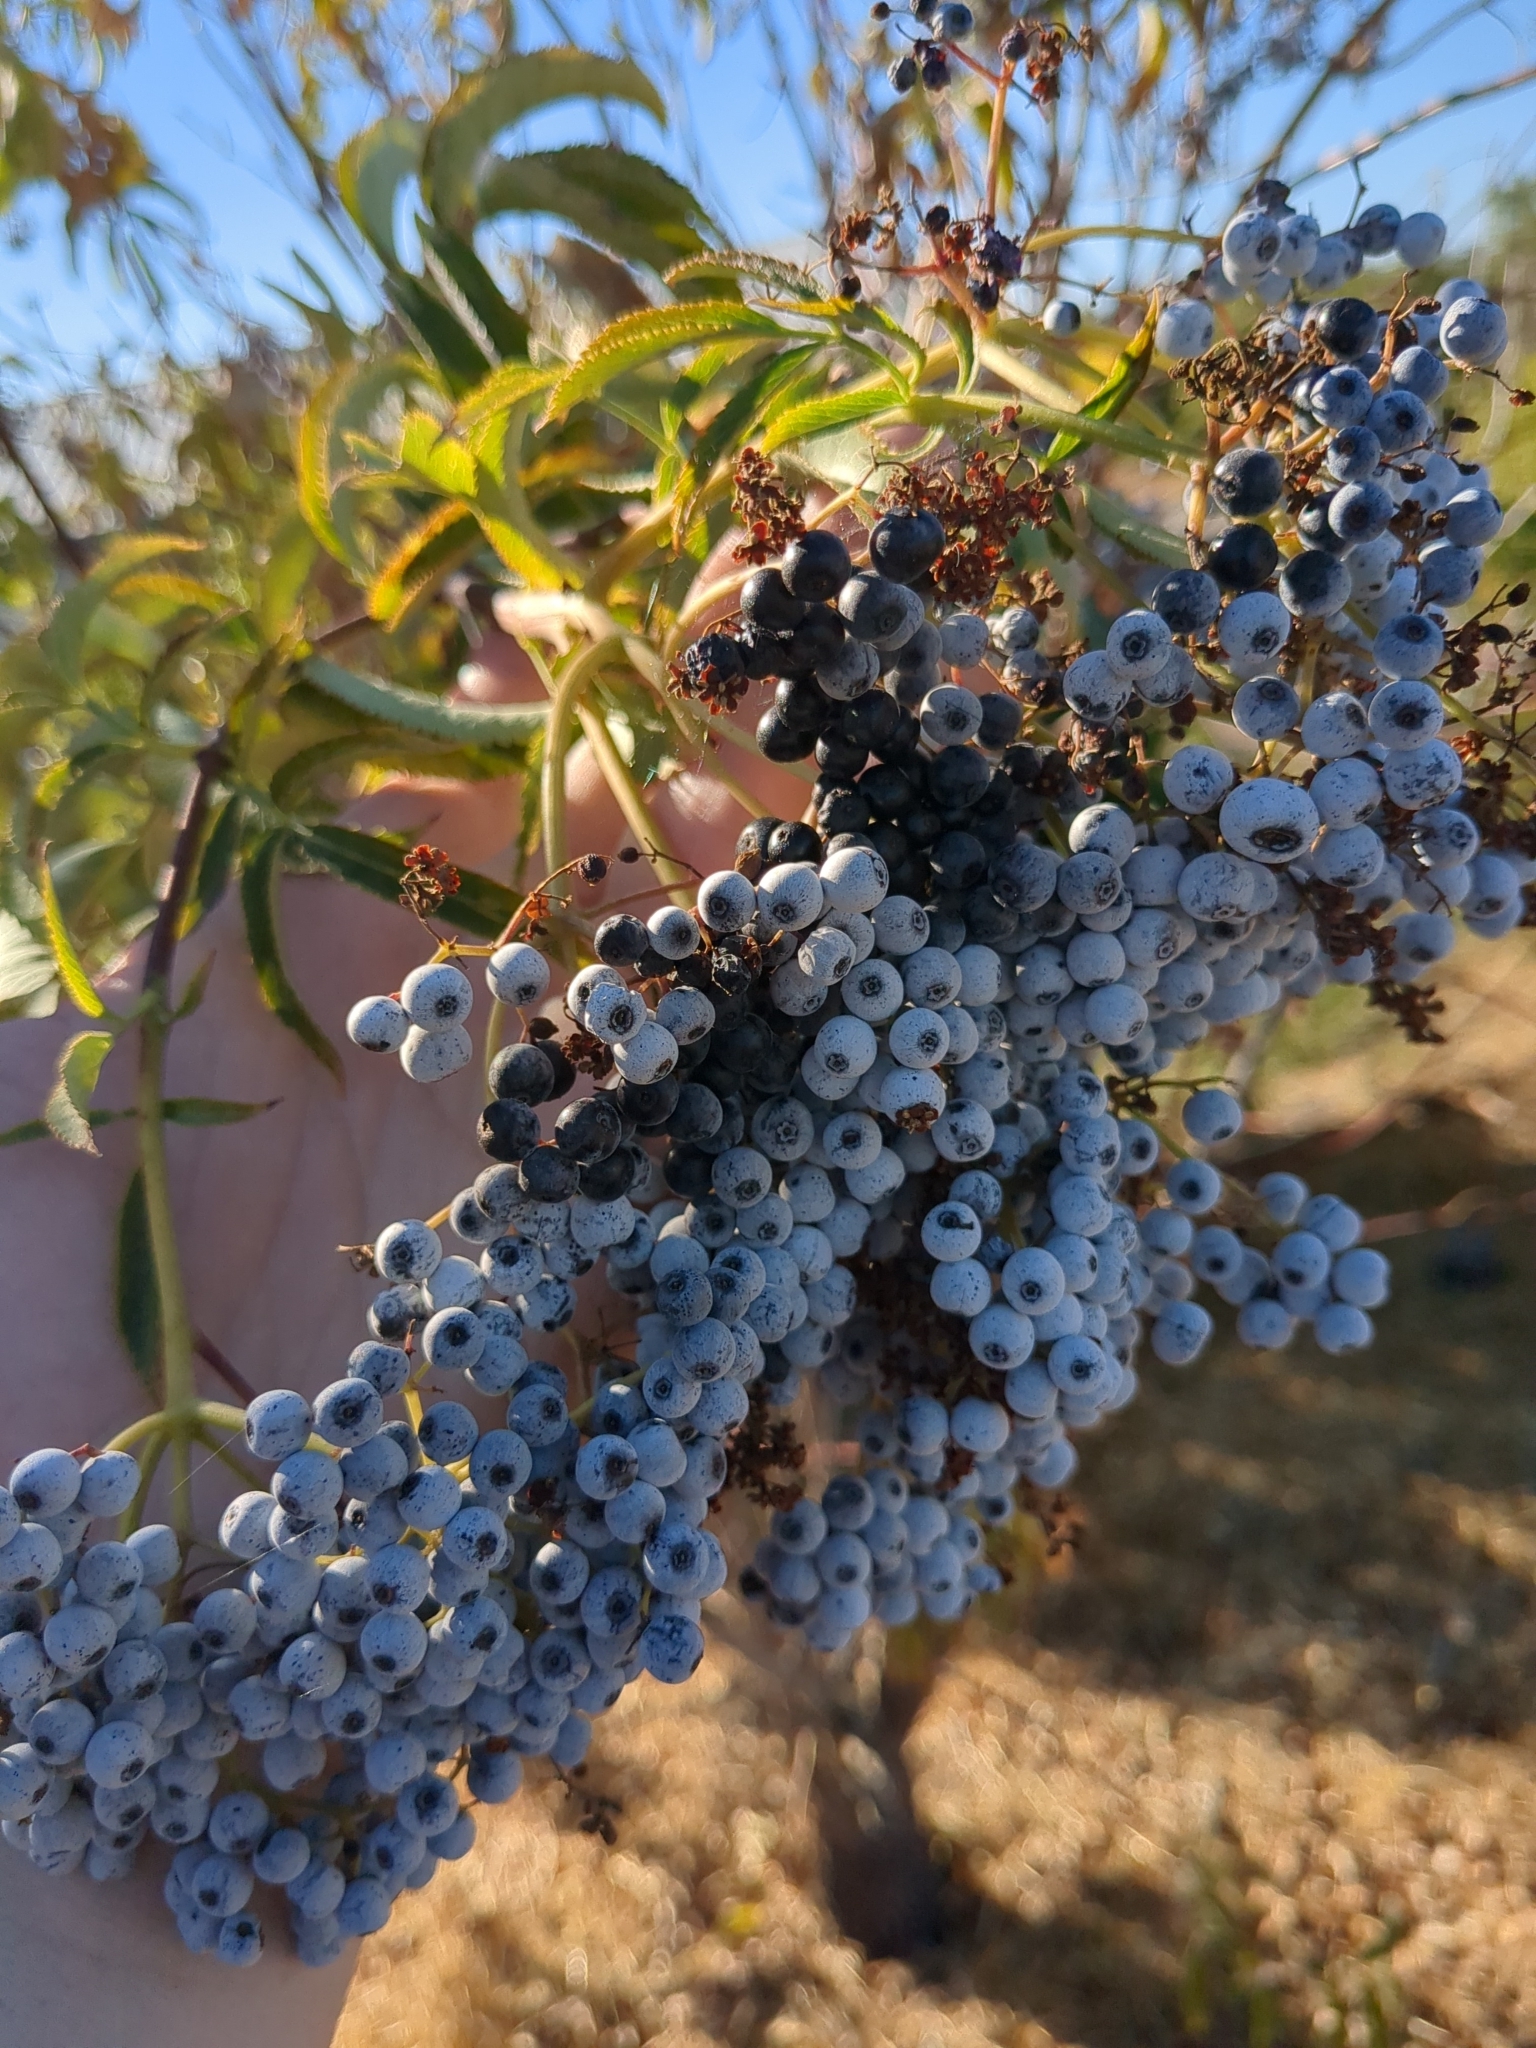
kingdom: Plantae
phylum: Tracheophyta
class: Magnoliopsida
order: Dipsacales
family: Viburnaceae
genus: Sambucus
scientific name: Sambucus cerulea
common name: Blue elder
